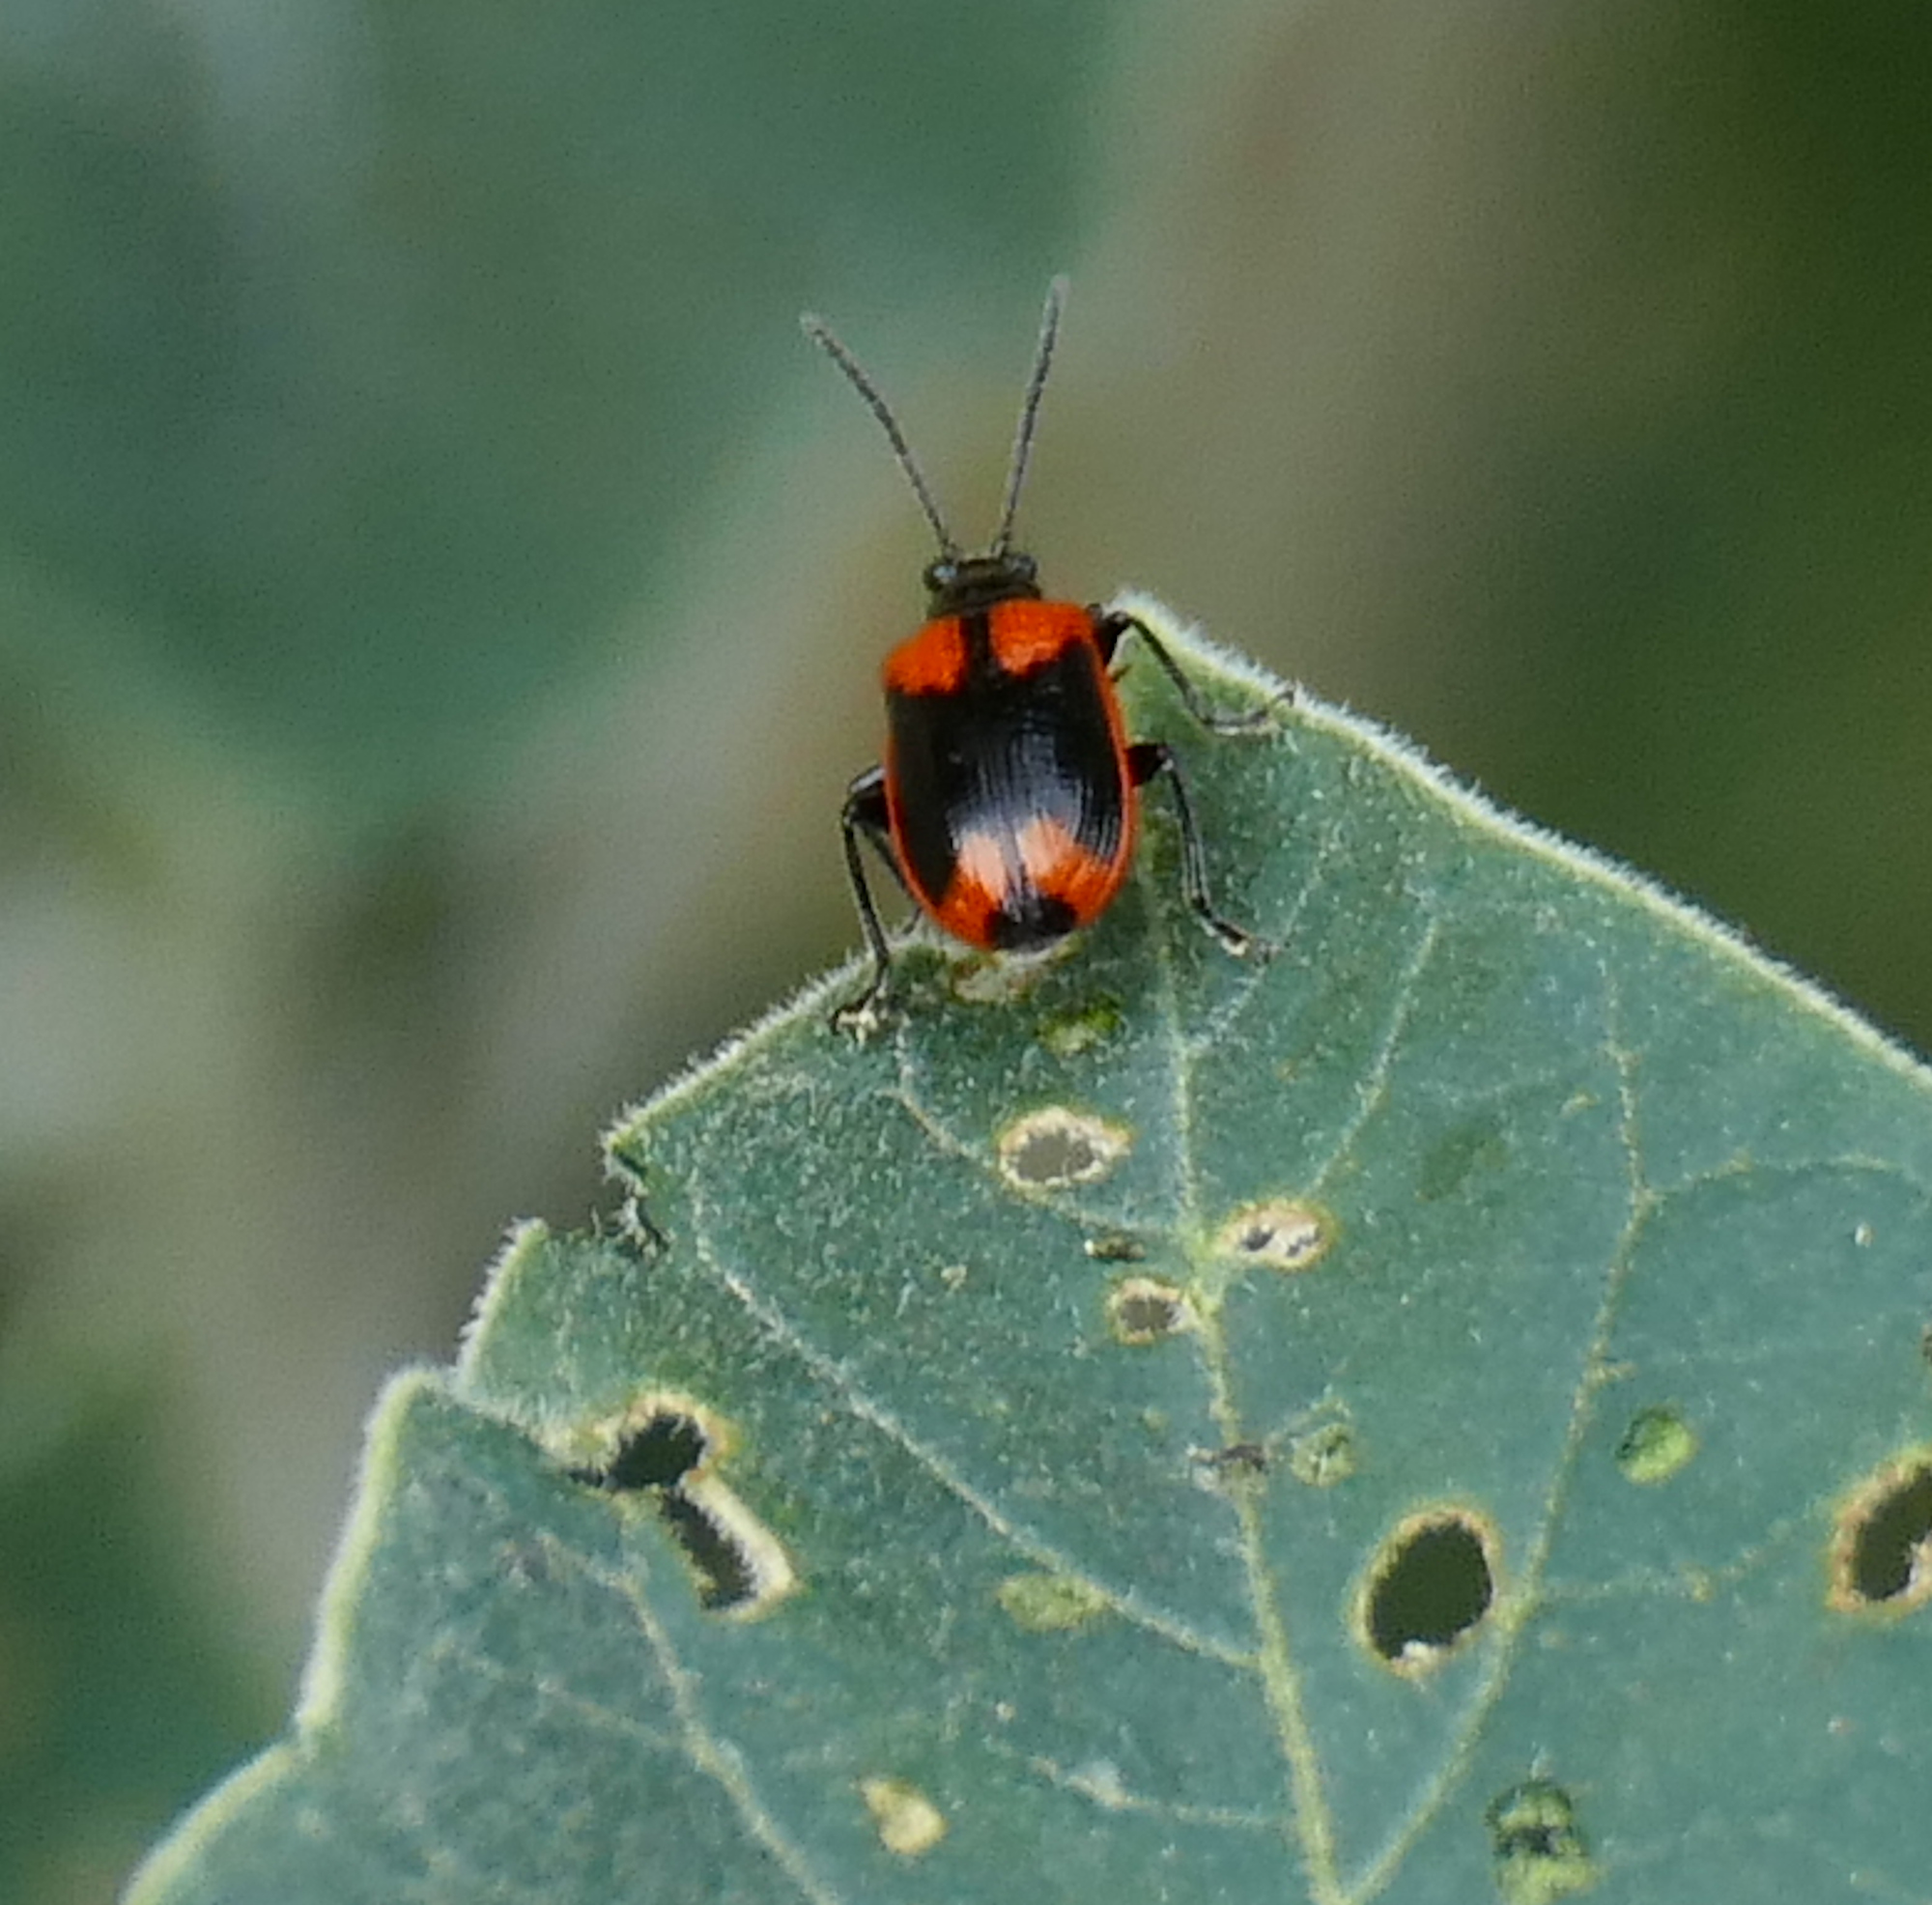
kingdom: Animalia
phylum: Arthropoda
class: Insecta
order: Coleoptera
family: Chrysomelidae
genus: Lema
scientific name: Lema confusa
